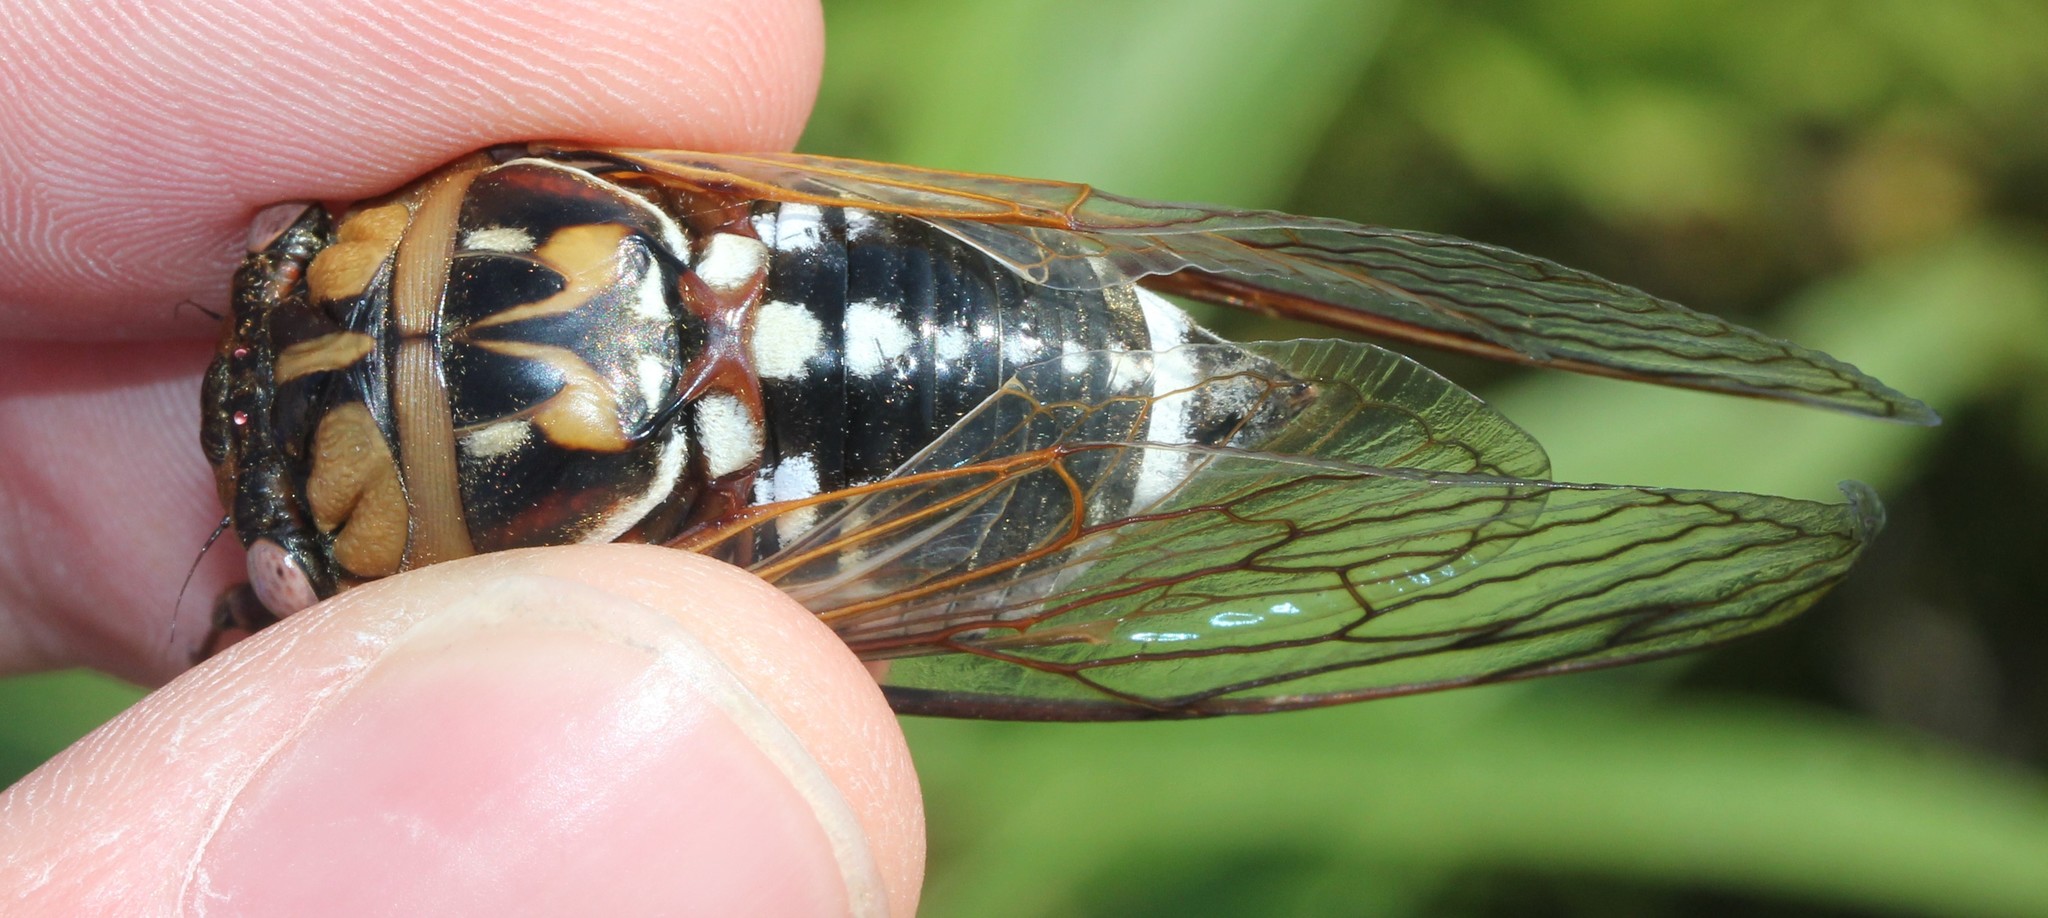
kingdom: Animalia
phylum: Arthropoda
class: Insecta
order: Hemiptera
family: Cicadidae
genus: Megatibicen
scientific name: Megatibicen dorsatus
